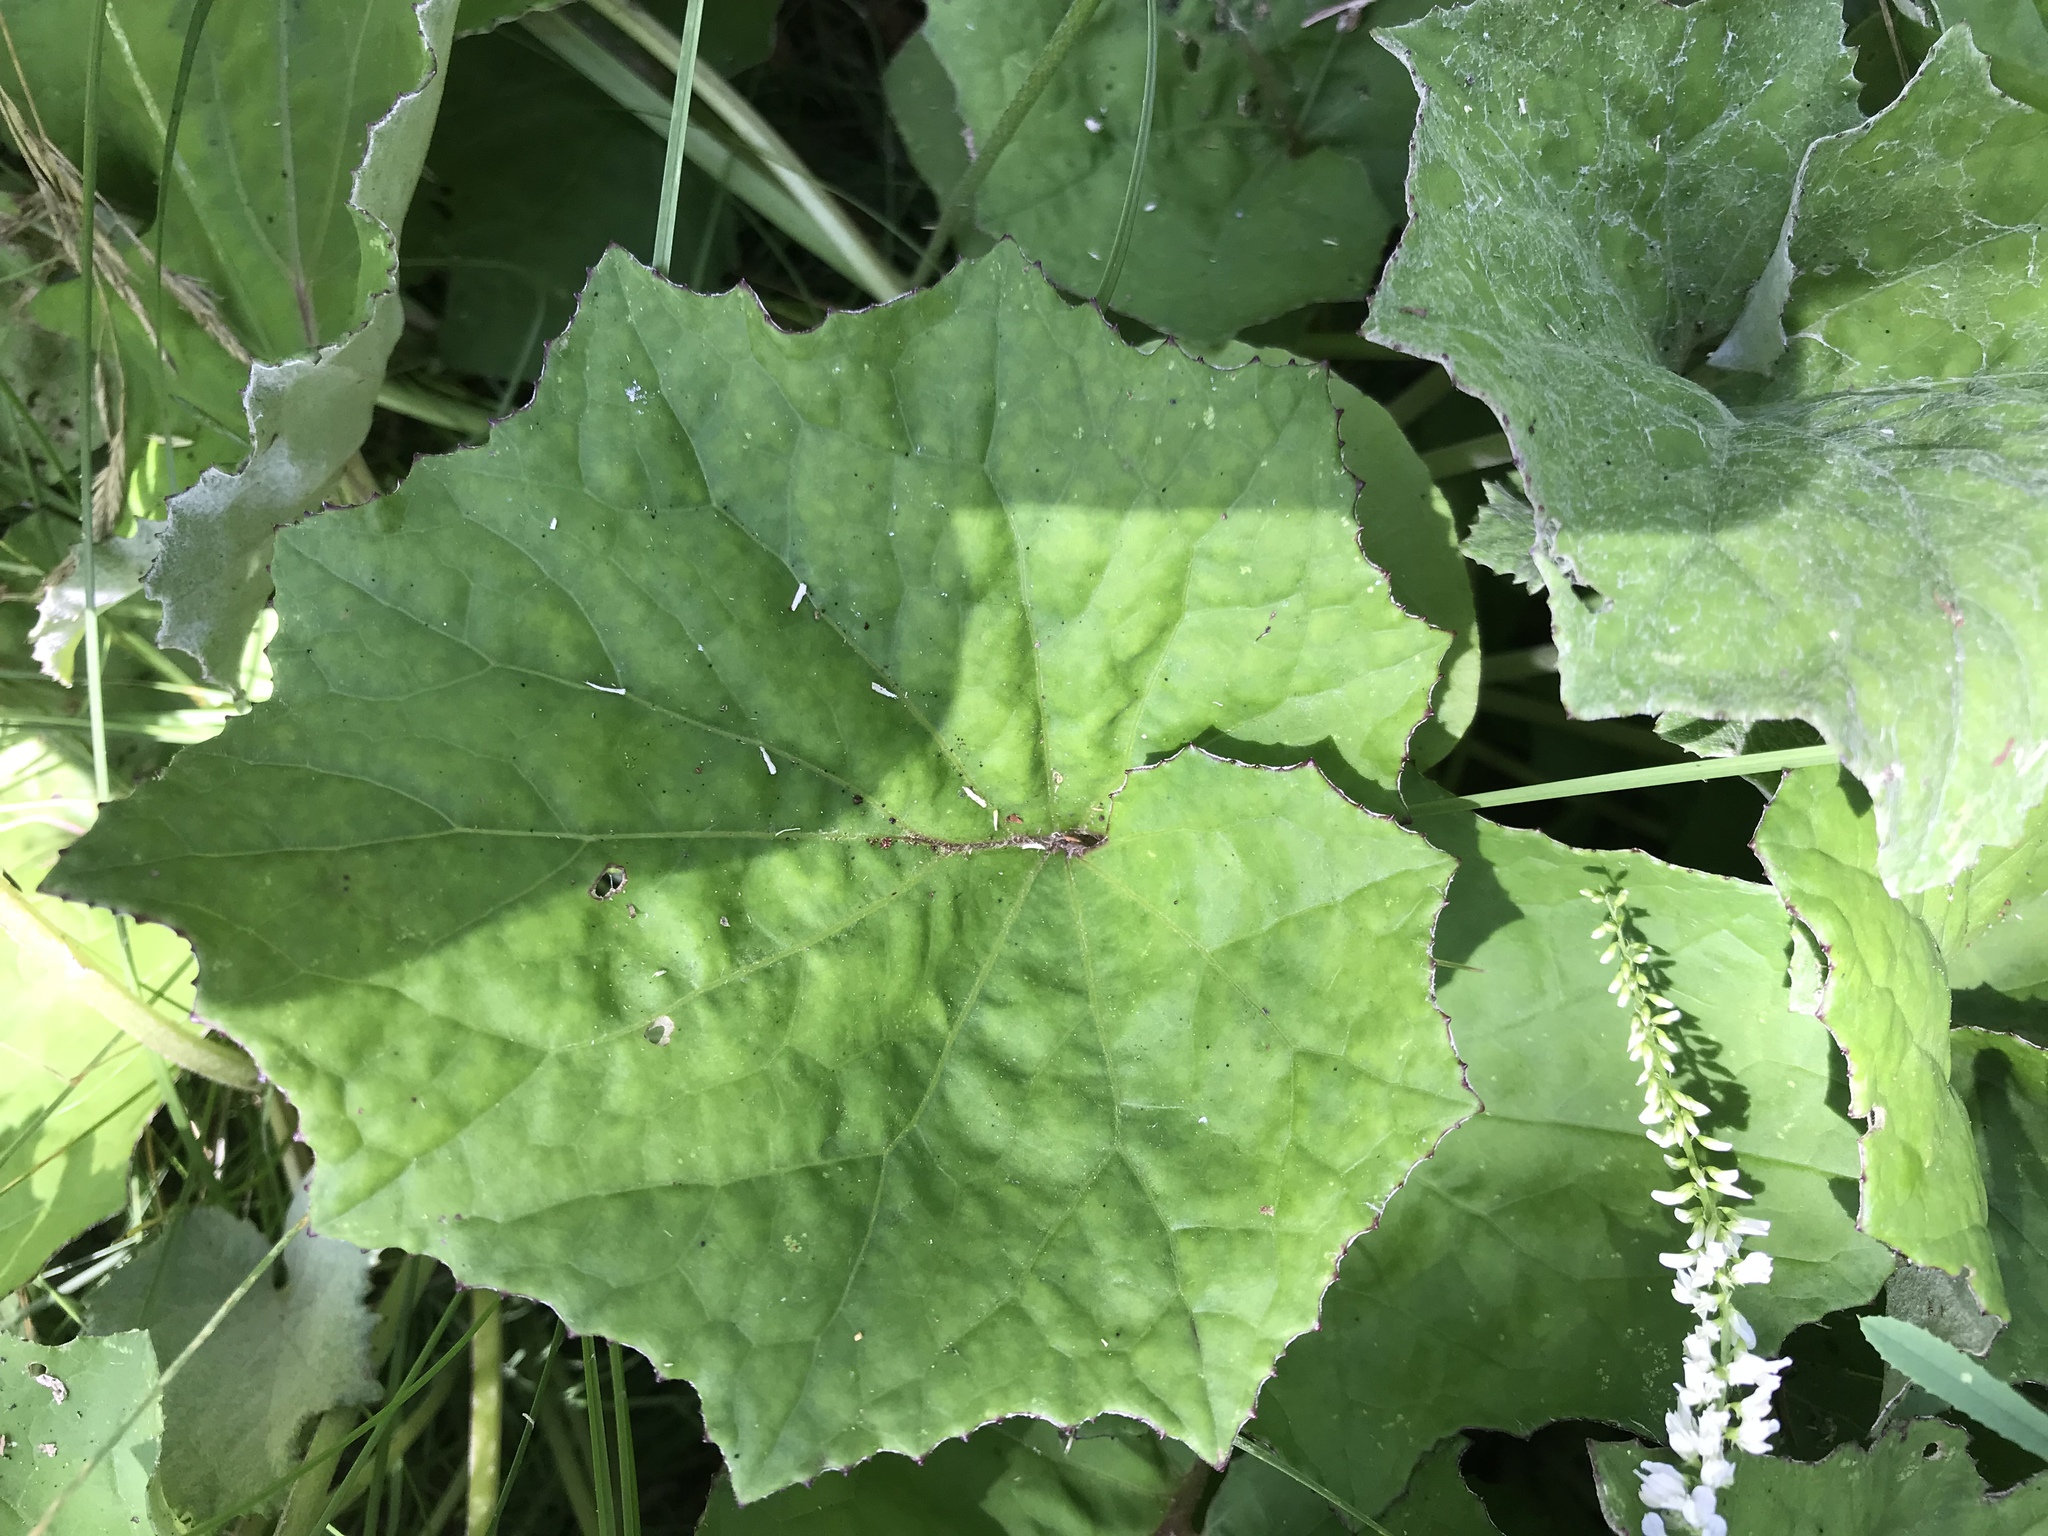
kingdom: Plantae
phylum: Tracheophyta
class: Magnoliopsida
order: Asterales
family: Asteraceae
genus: Tussilago
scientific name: Tussilago farfara
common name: Coltsfoot
